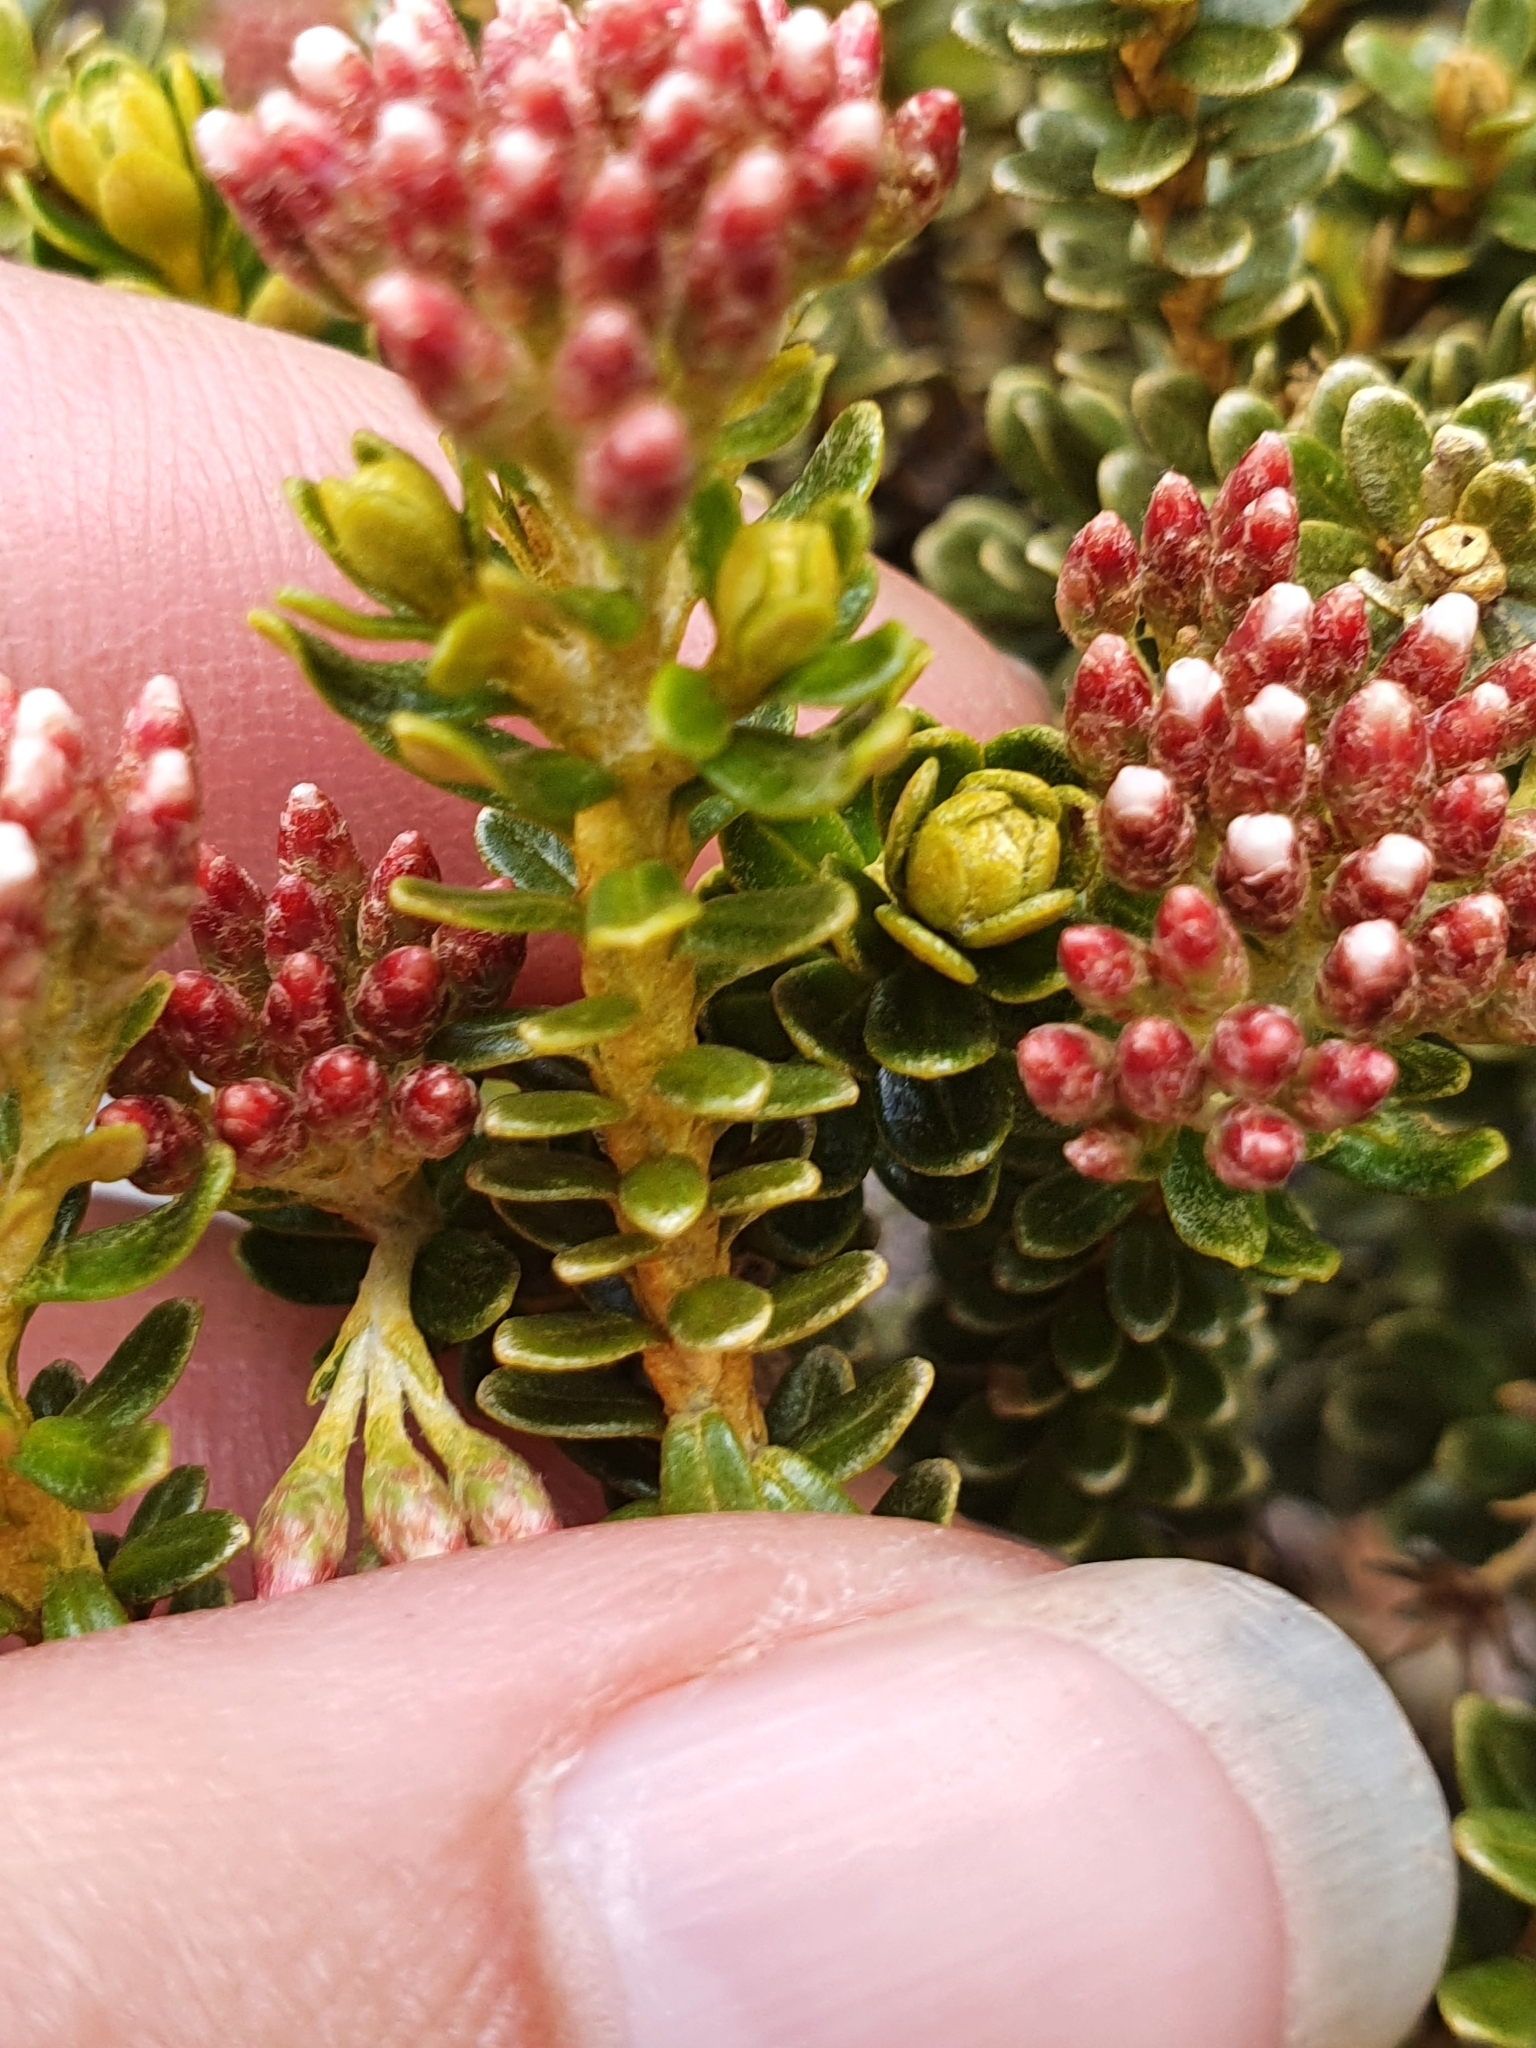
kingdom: Plantae
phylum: Tracheophyta
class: Magnoliopsida
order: Asterales
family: Asteraceae
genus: Ozothamnus
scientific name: Ozothamnus leptophyllus
